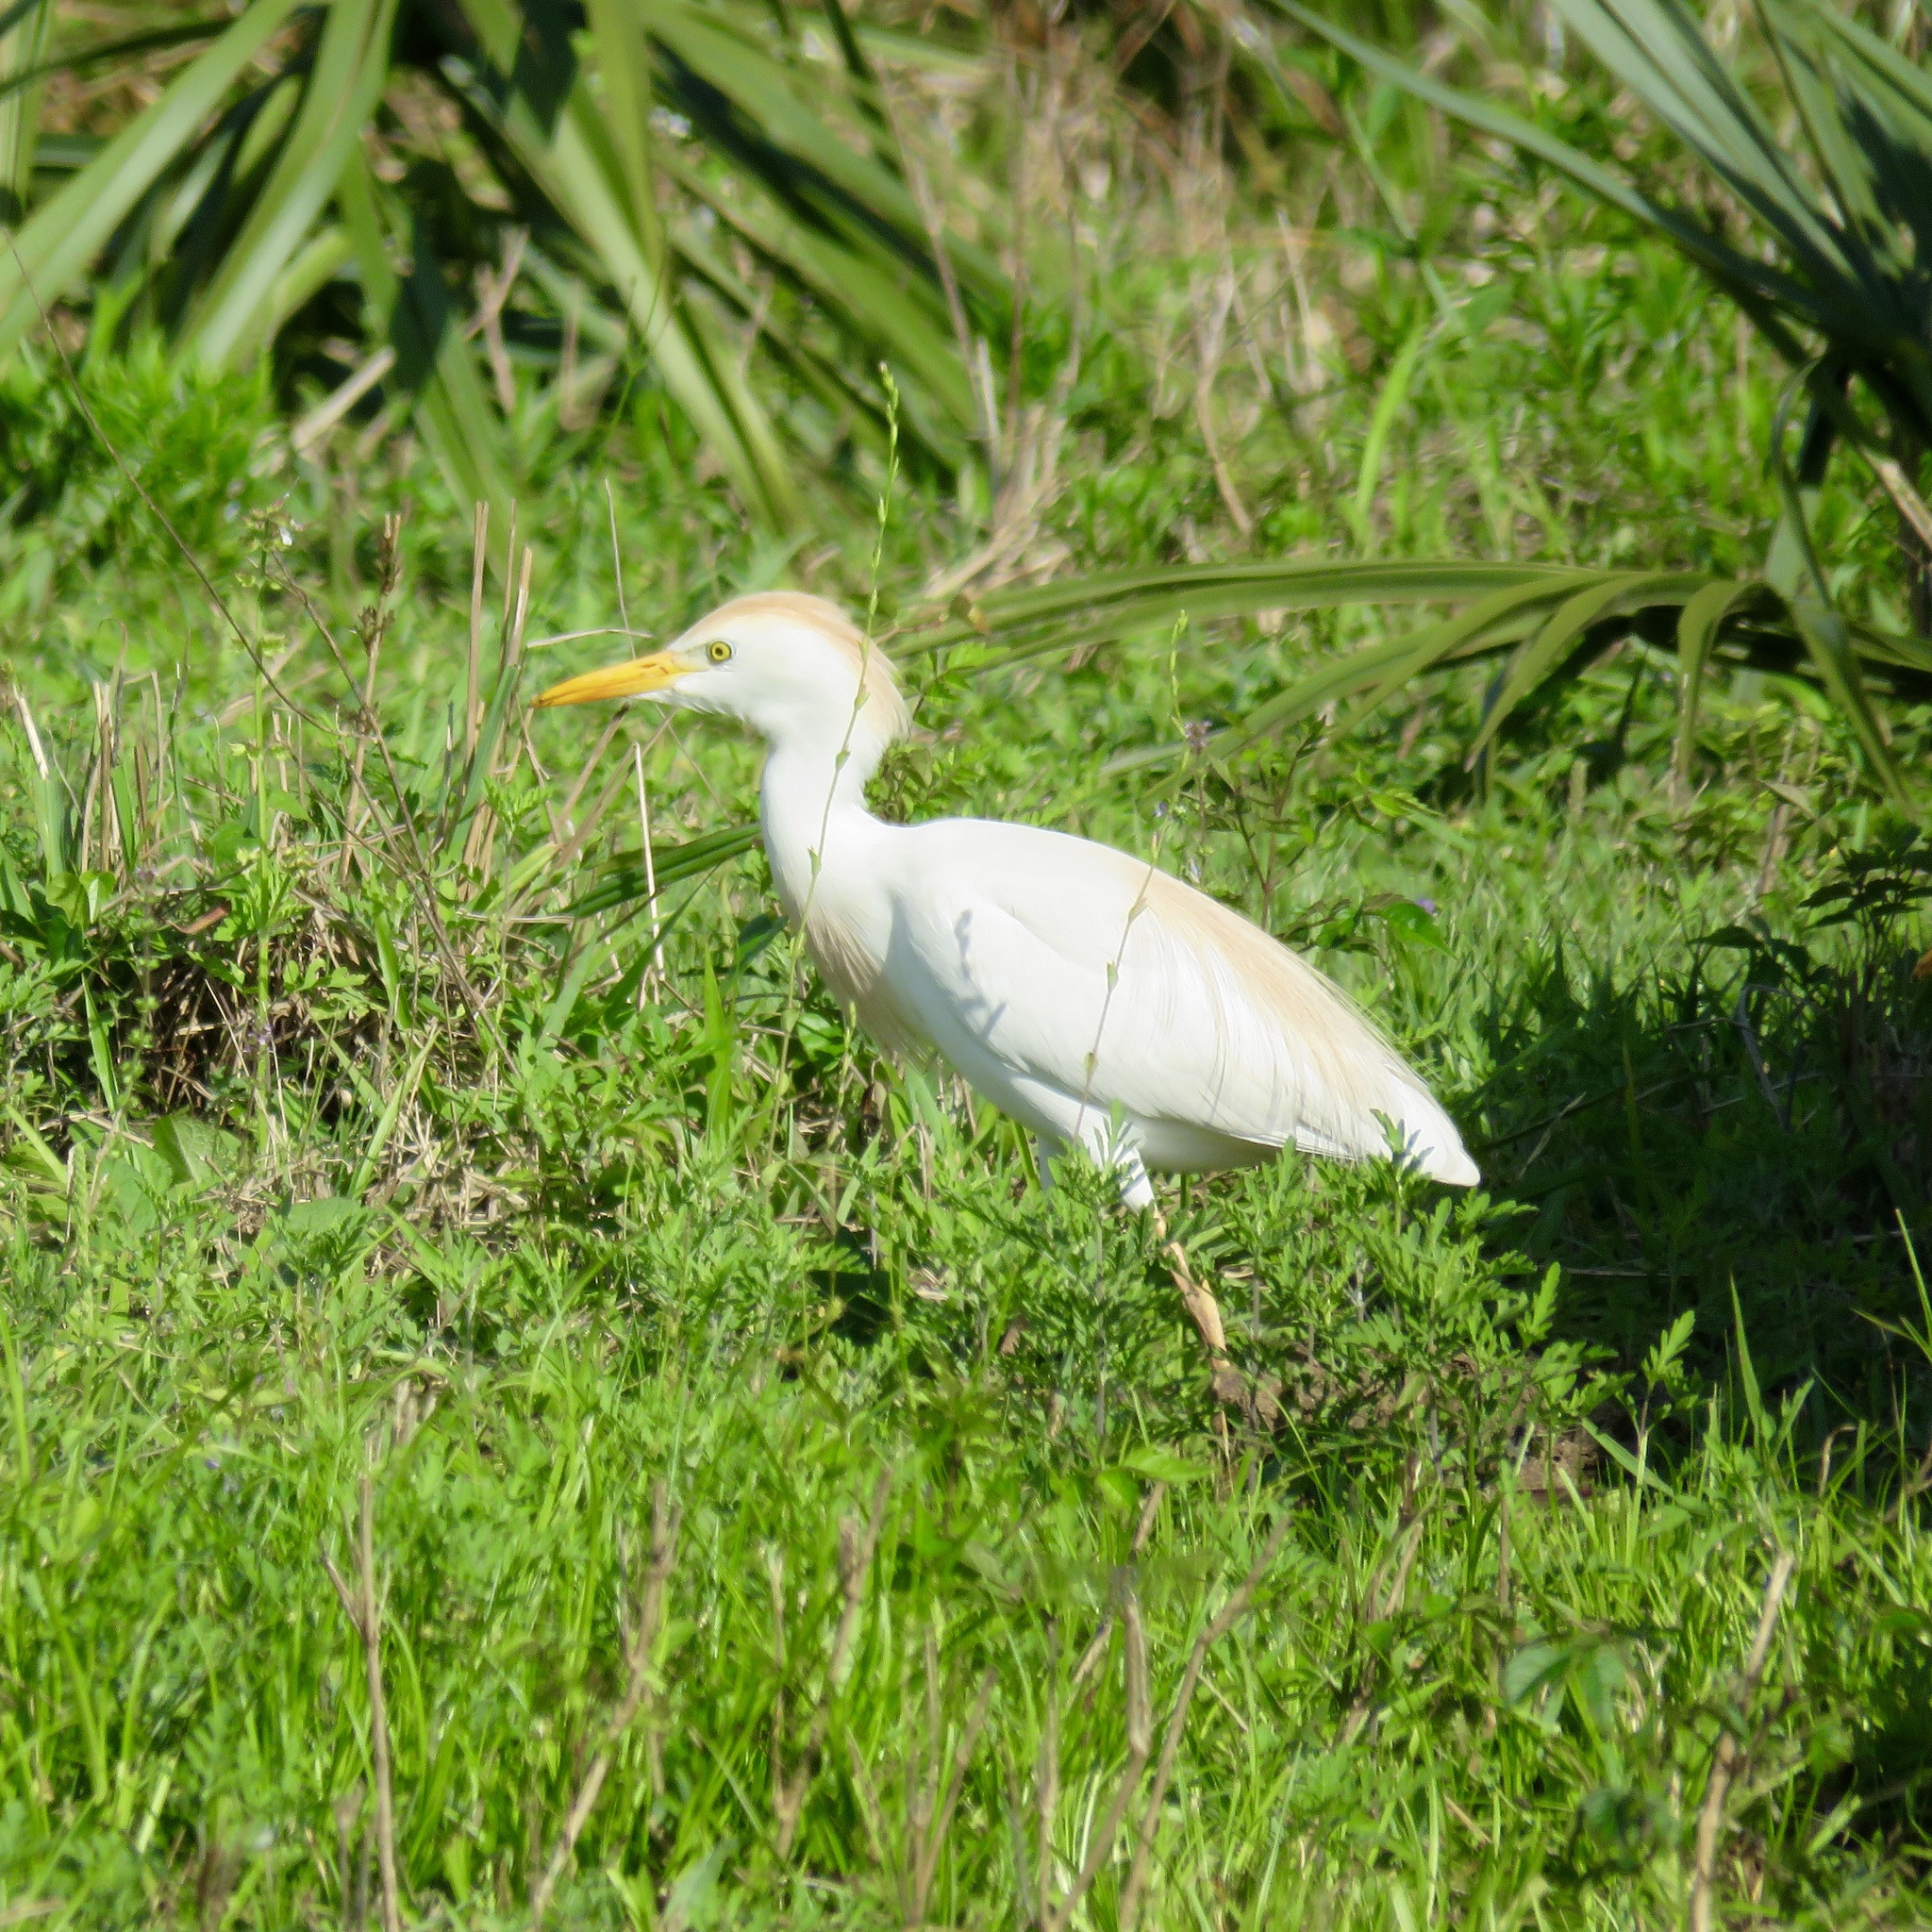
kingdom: Animalia
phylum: Chordata
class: Aves
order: Pelecaniformes
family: Ardeidae
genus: Bubulcus
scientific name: Bubulcus ibis
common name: Cattle egret
